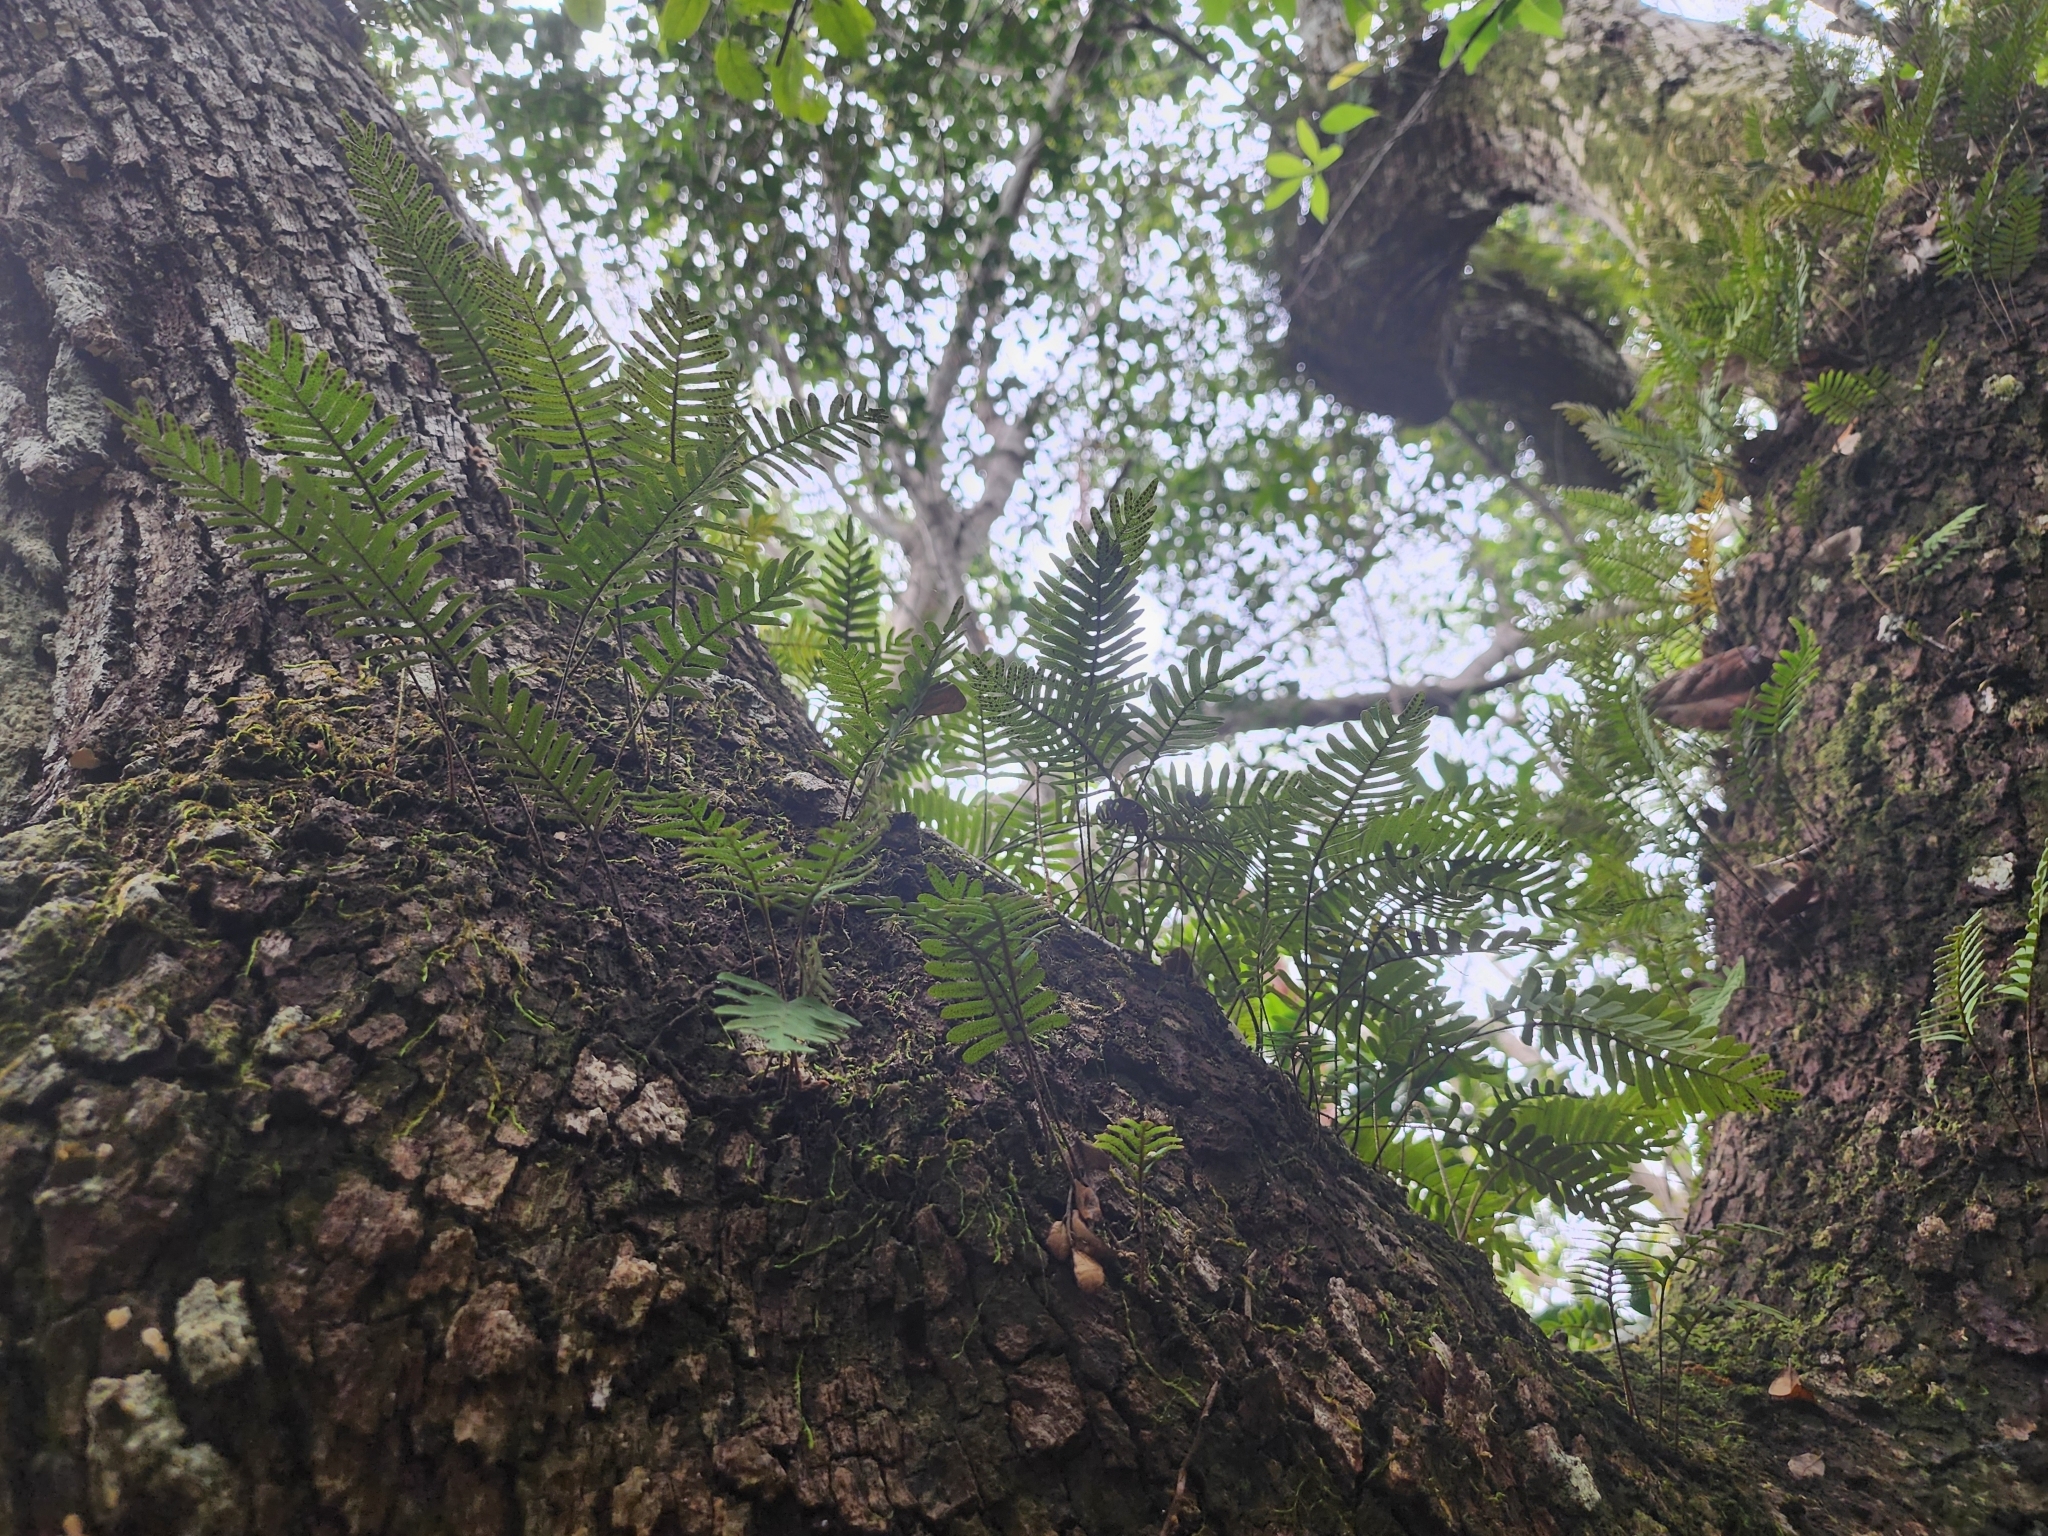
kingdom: Plantae
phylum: Tracheophyta
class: Polypodiopsida
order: Polypodiales
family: Polypodiaceae
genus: Pleopeltis
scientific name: Pleopeltis michauxiana
